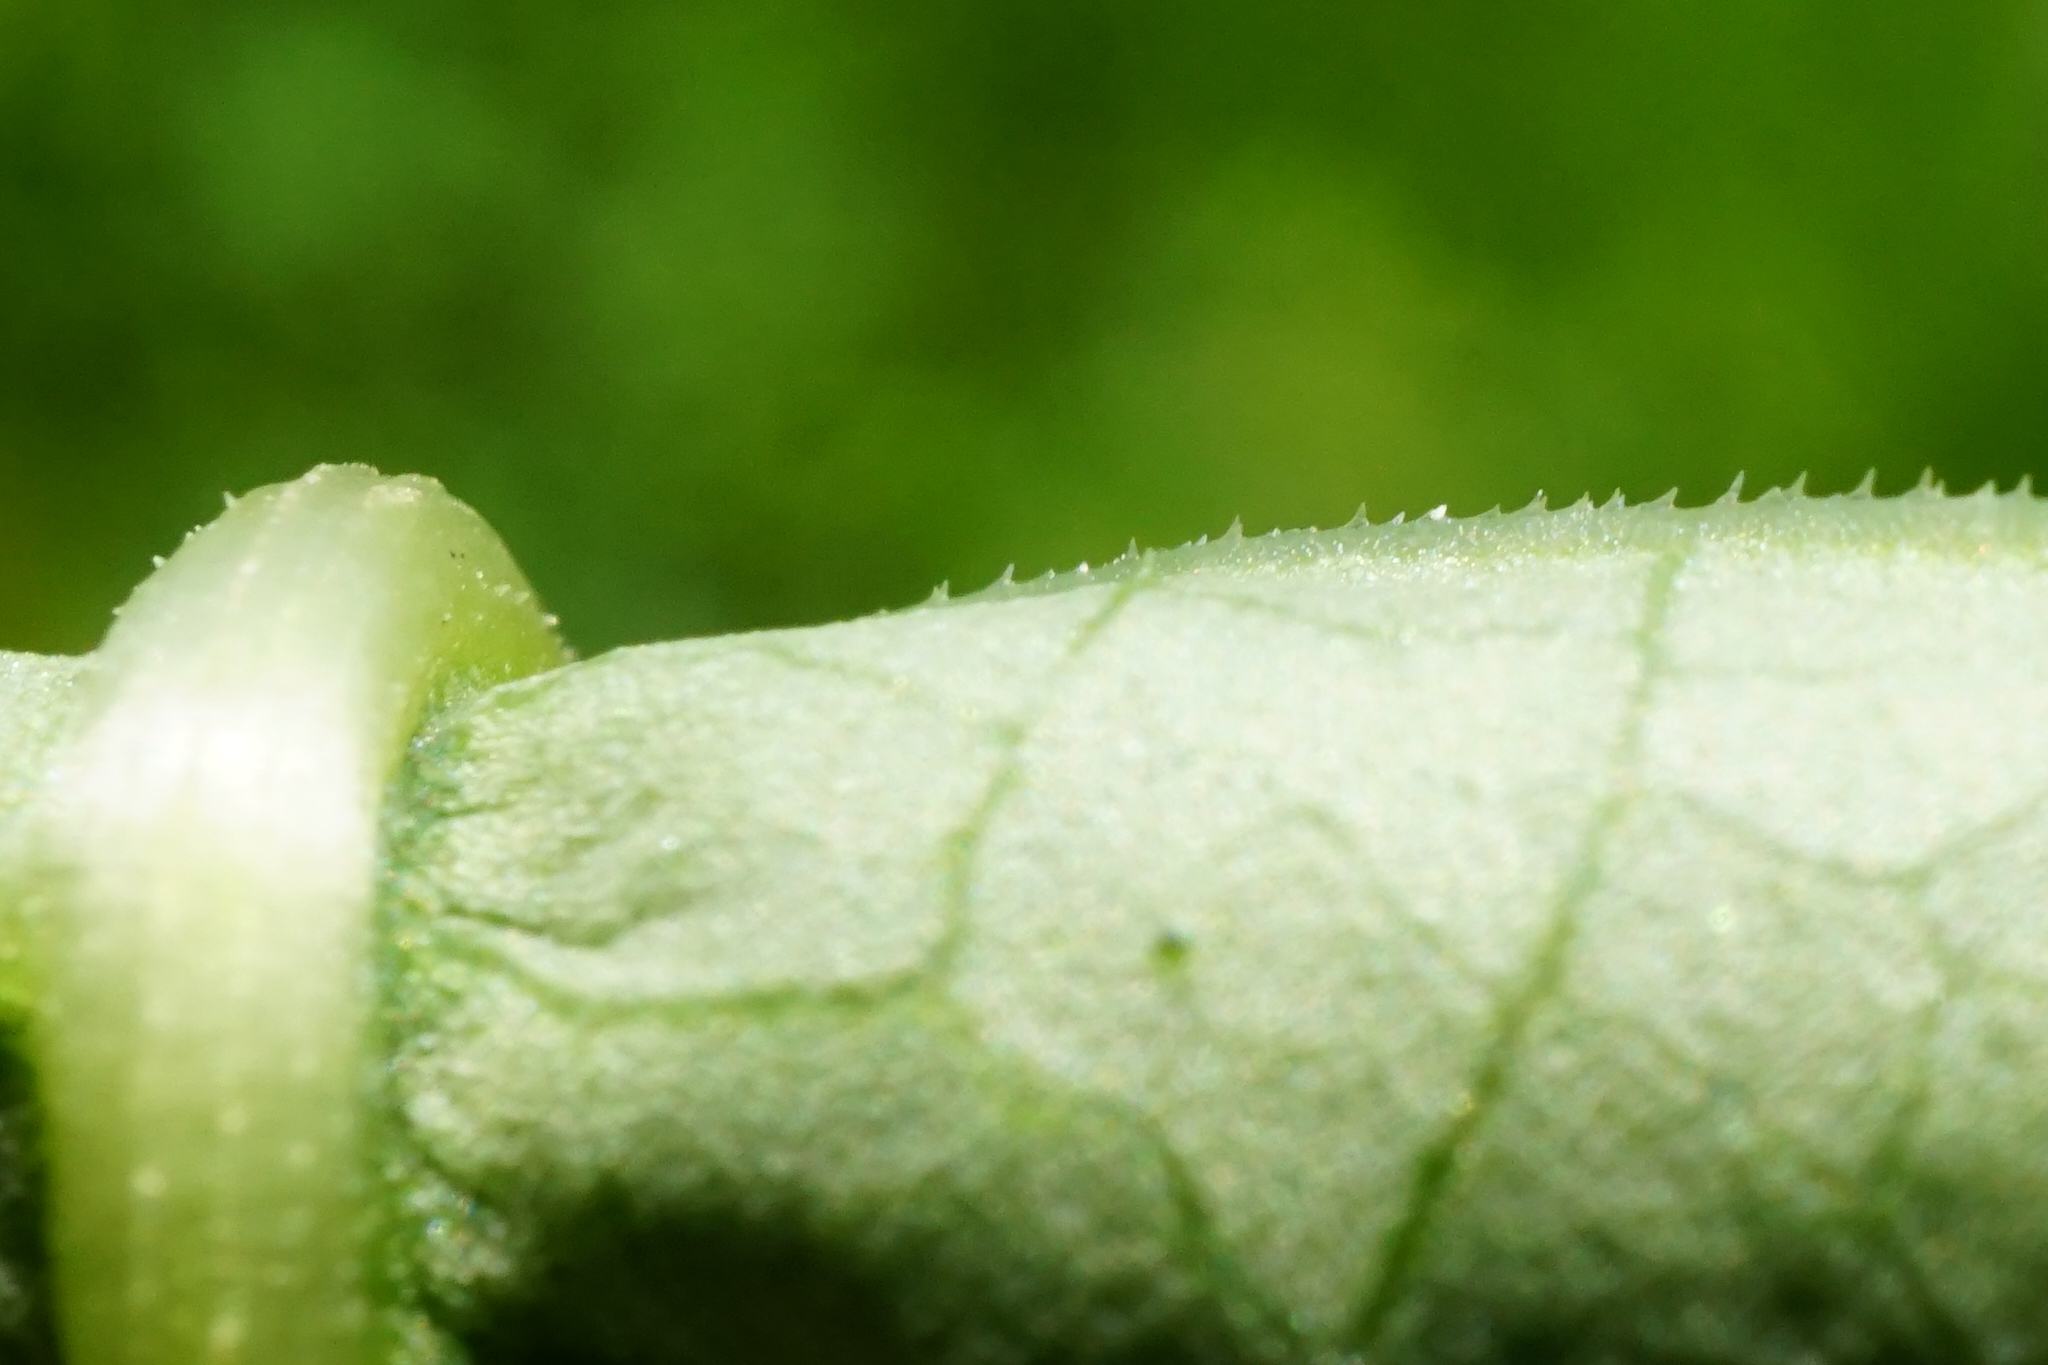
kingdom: Plantae
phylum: Tracheophyta
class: Magnoliopsida
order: Caryophyllales
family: Polygonaceae
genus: Reynoutria
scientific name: Reynoutria bohemica
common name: Bohemian knotweed
